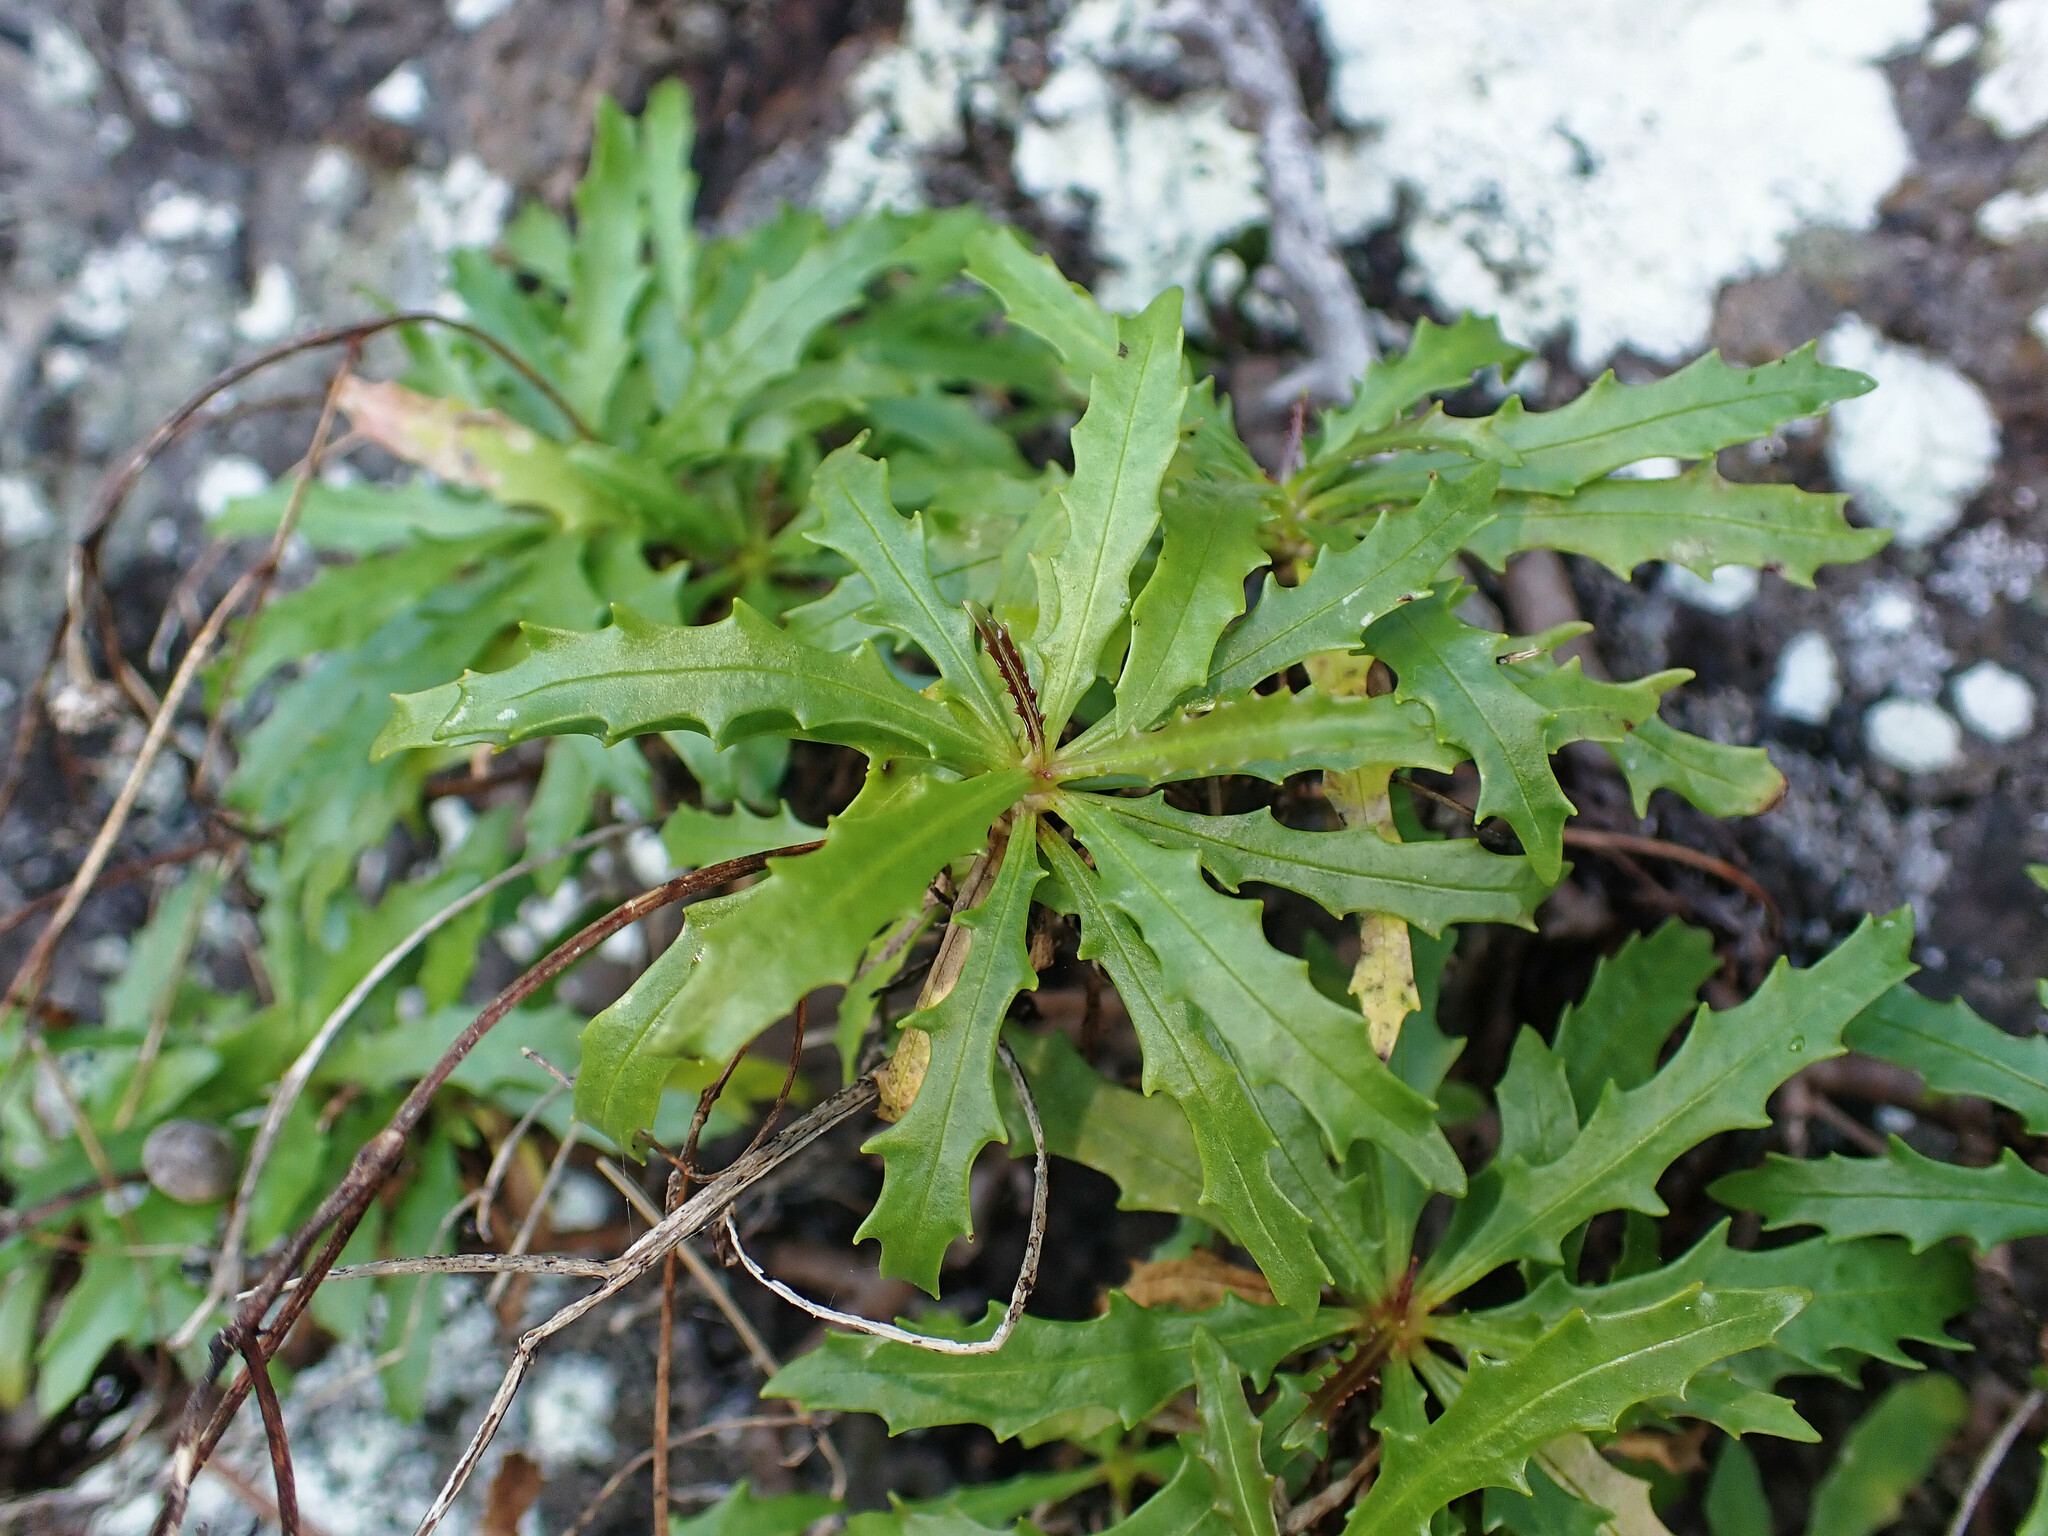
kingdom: Plantae
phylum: Tracheophyta
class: Magnoliopsida
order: Asterales
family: Asteraceae
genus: Tolpis
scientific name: Tolpis succulenta
